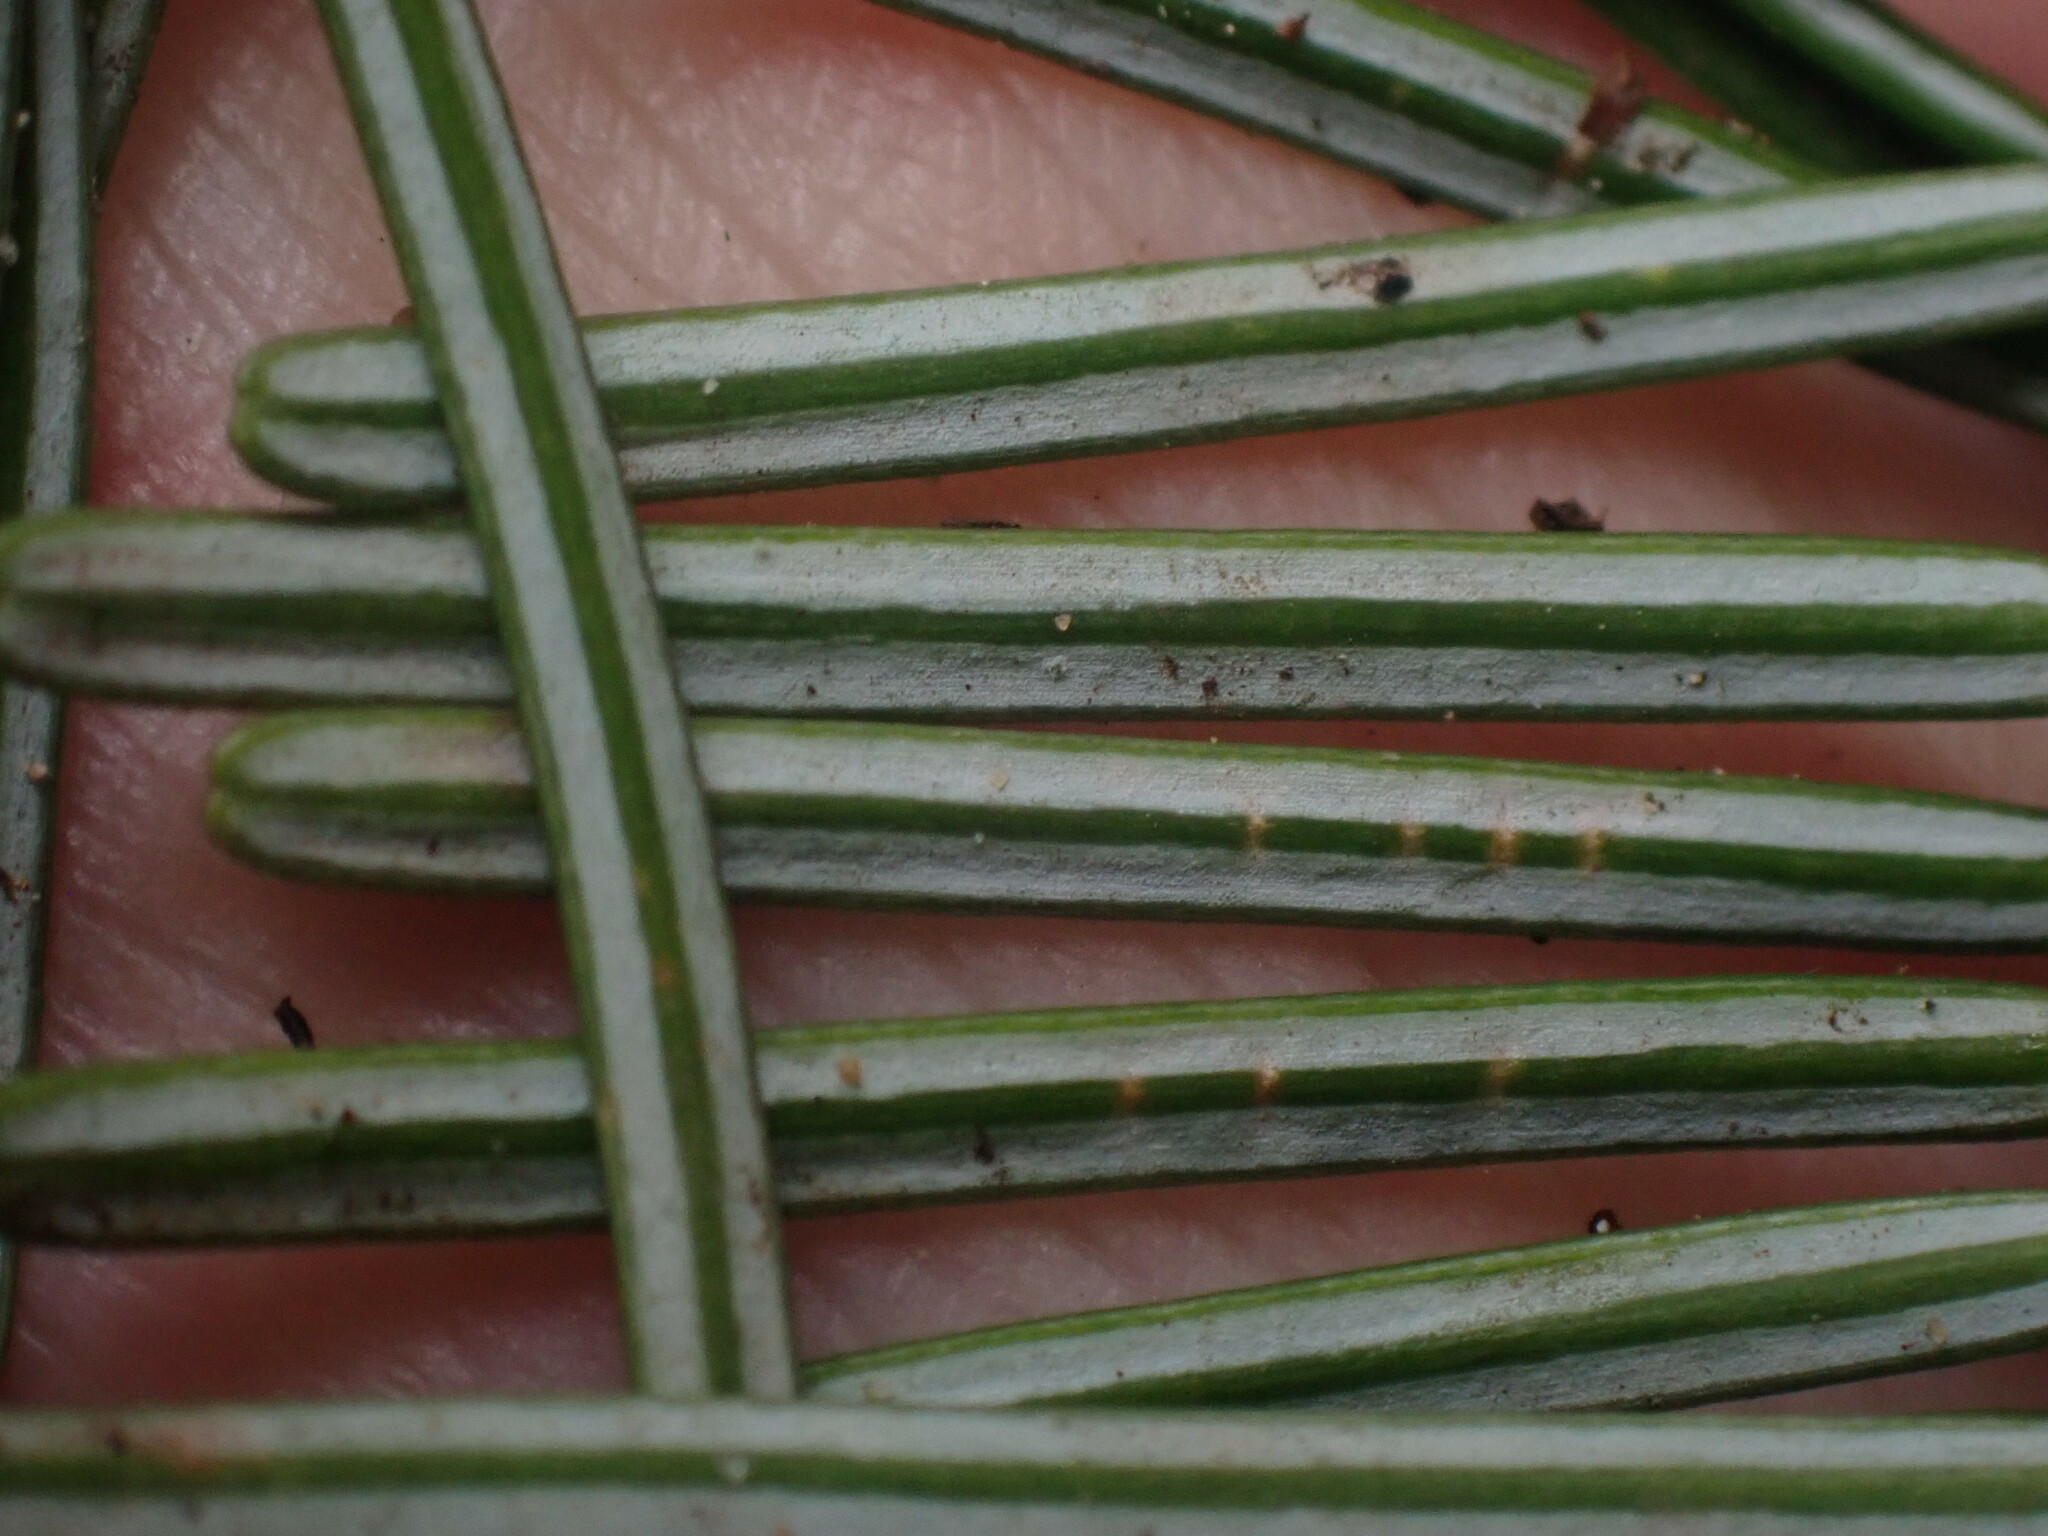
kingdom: Plantae
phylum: Tracheophyta
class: Pinopsida
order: Pinales
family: Pinaceae
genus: Abies
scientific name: Abies grandis
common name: Giant fir
